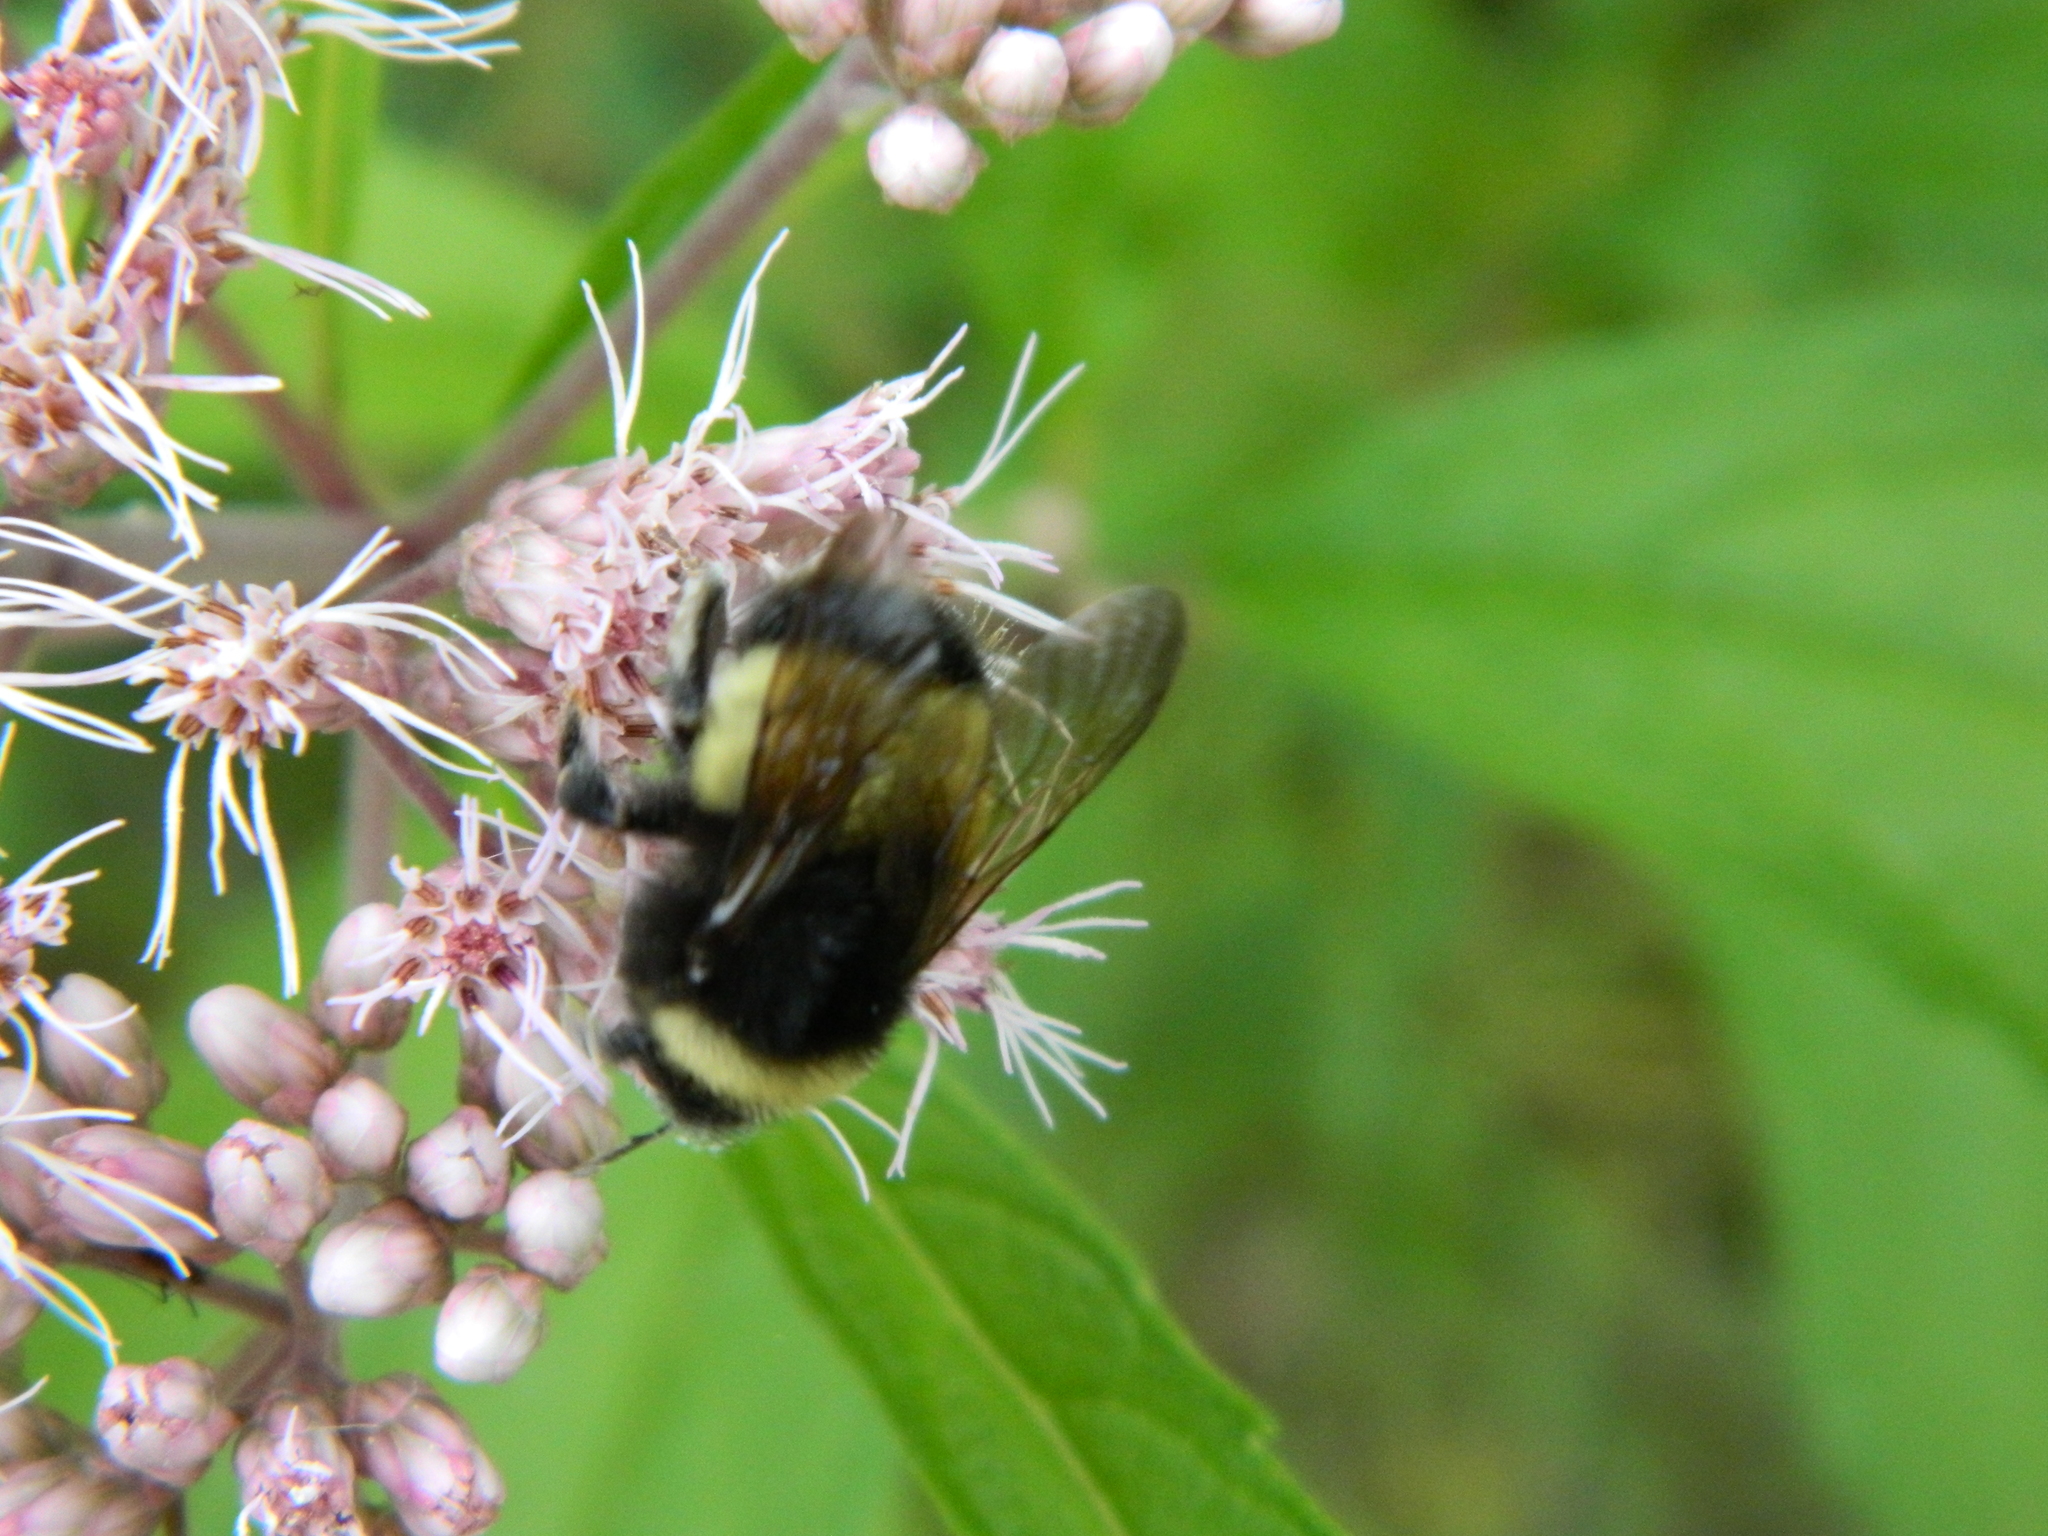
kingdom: Animalia
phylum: Arthropoda
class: Insecta
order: Hymenoptera
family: Apidae
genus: Bombus
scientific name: Bombus terricola
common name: Yellow-banded bumble bee
